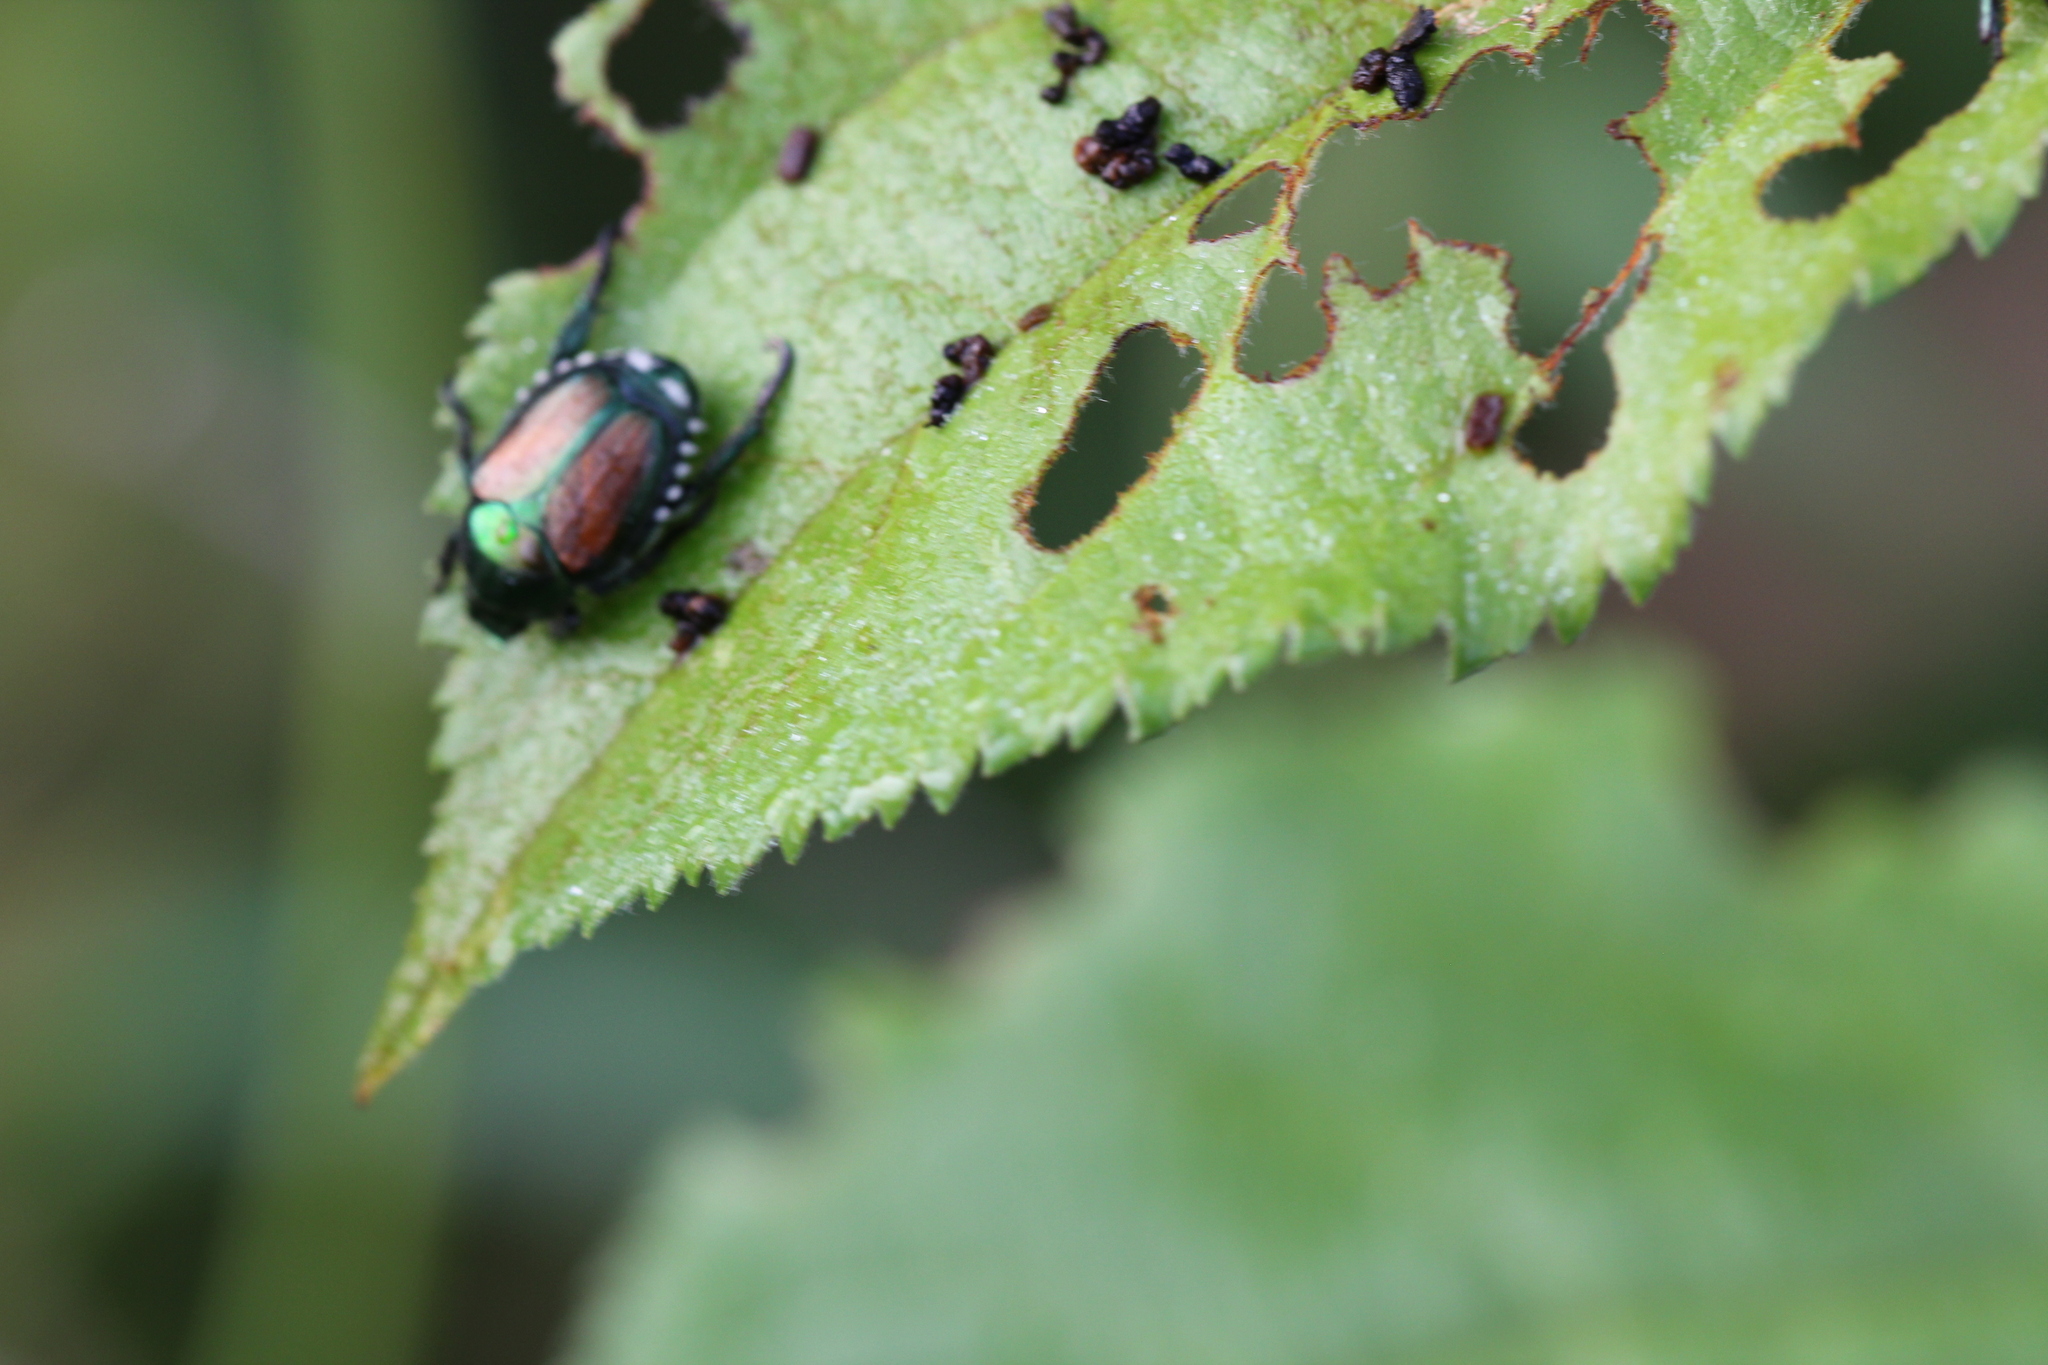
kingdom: Animalia
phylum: Arthropoda
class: Insecta
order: Coleoptera
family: Scarabaeidae
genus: Popillia
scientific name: Popillia japonica
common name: Japanese beetle
